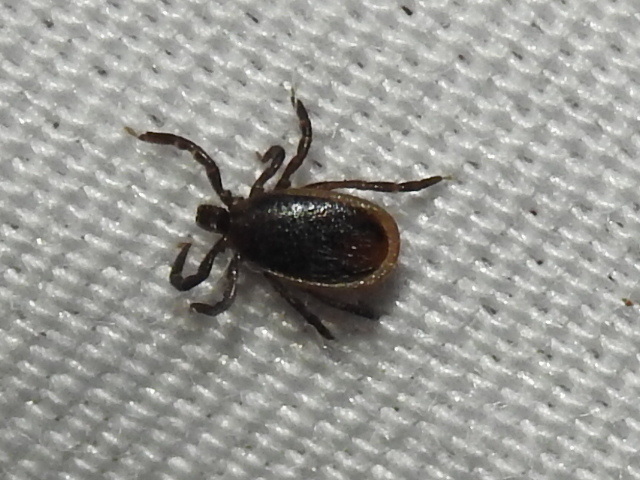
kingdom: Animalia
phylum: Arthropoda
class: Arachnida
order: Ixodida
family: Ixodidae
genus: Ixodes
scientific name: Ixodes scapularis
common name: Black legged tick
